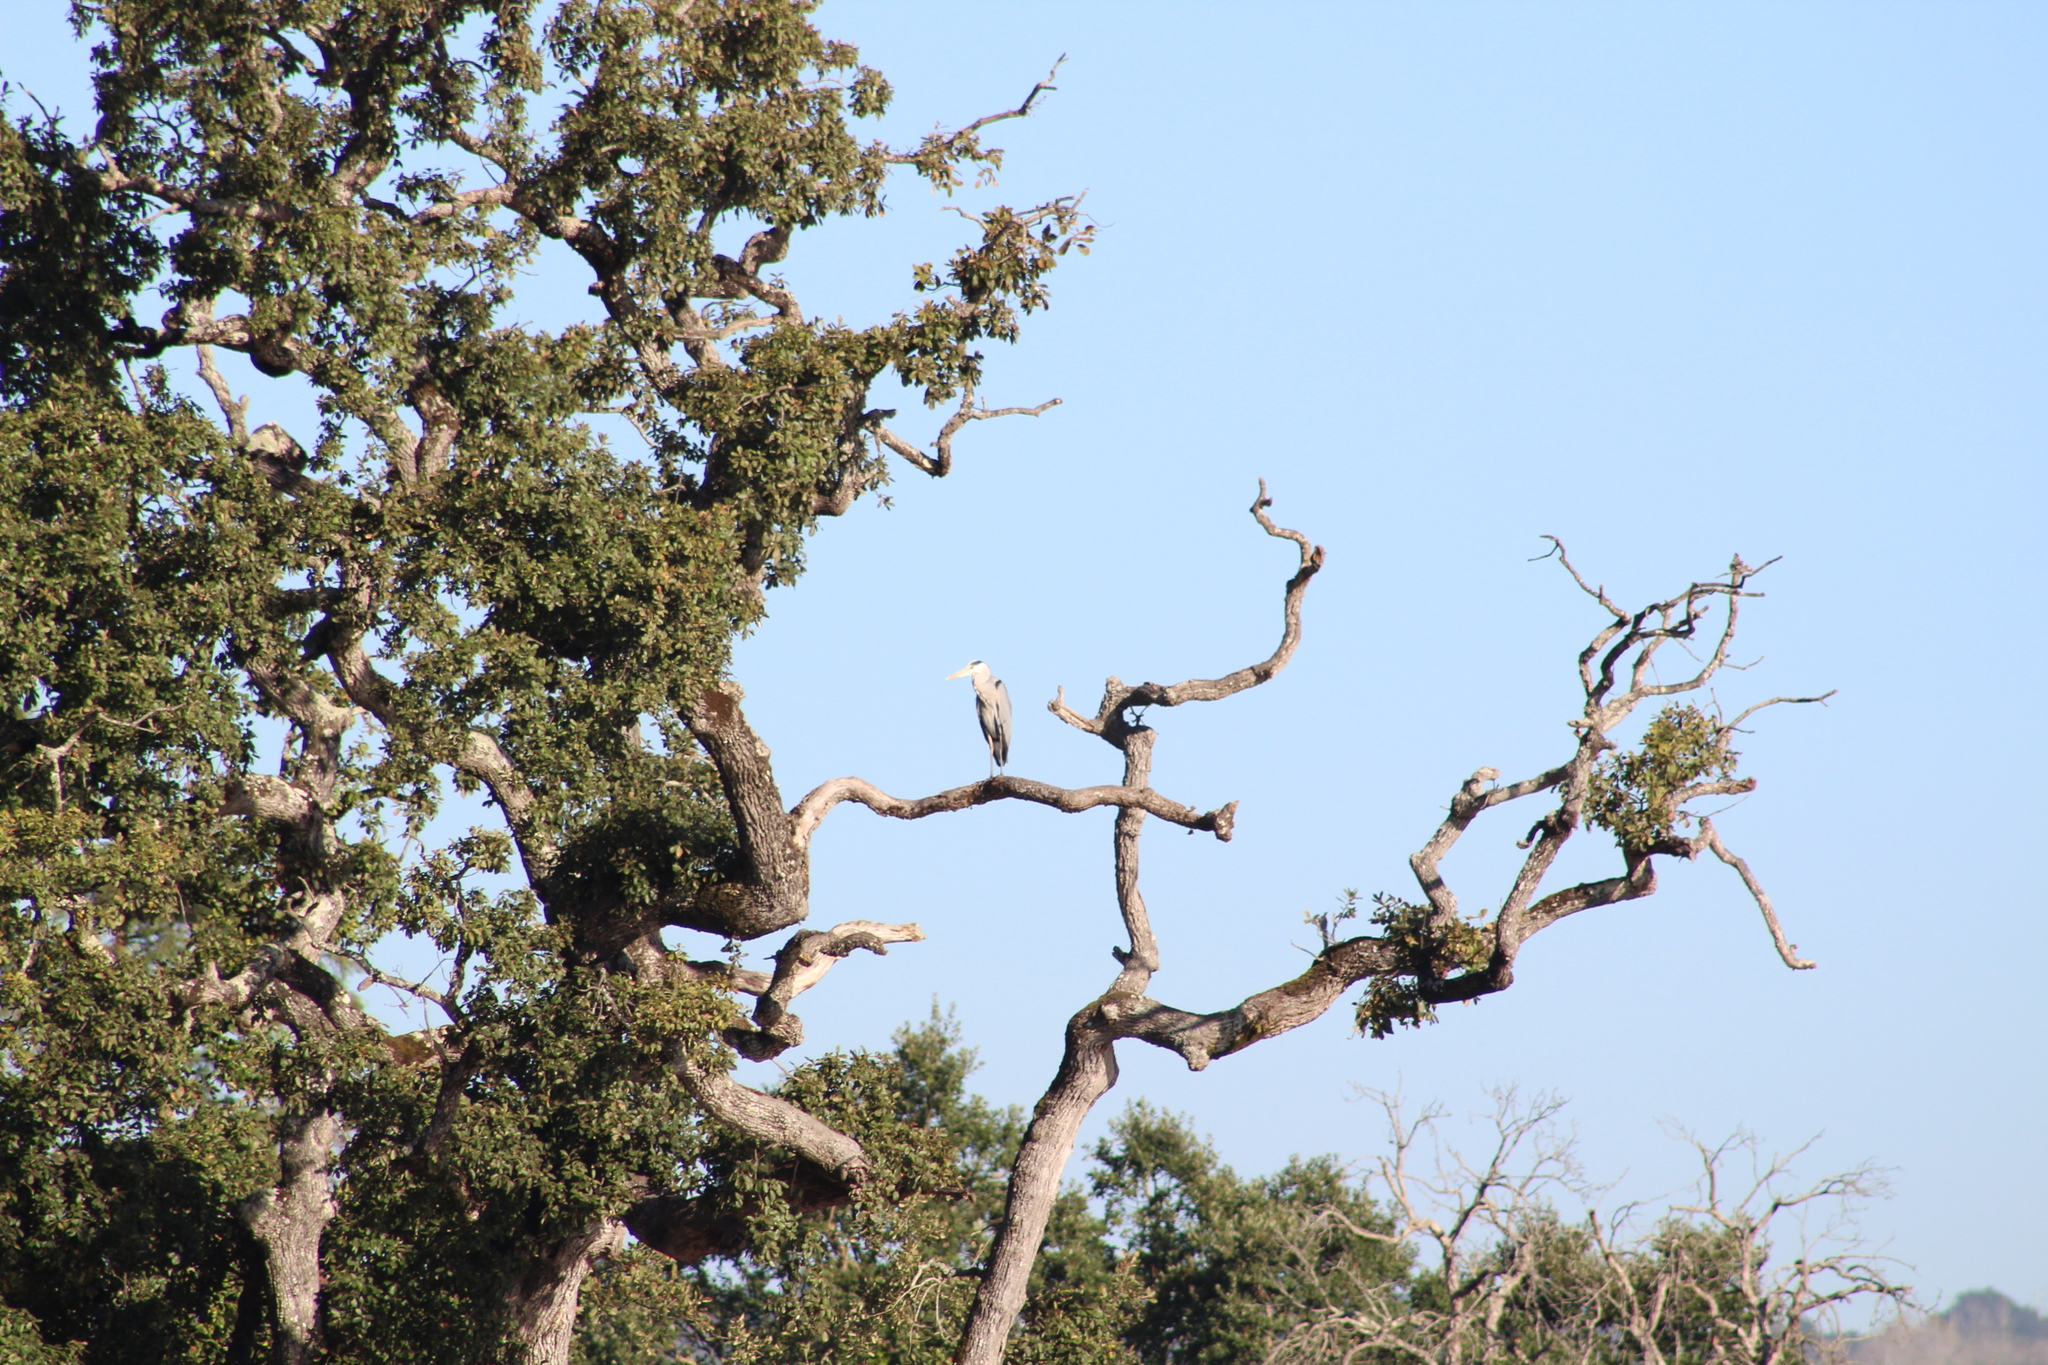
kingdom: Animalia
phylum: Chordata
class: Aves
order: Pelecaniformes
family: Ardeidae
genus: Ardea
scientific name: Ardea cinerea
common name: Grey heron
